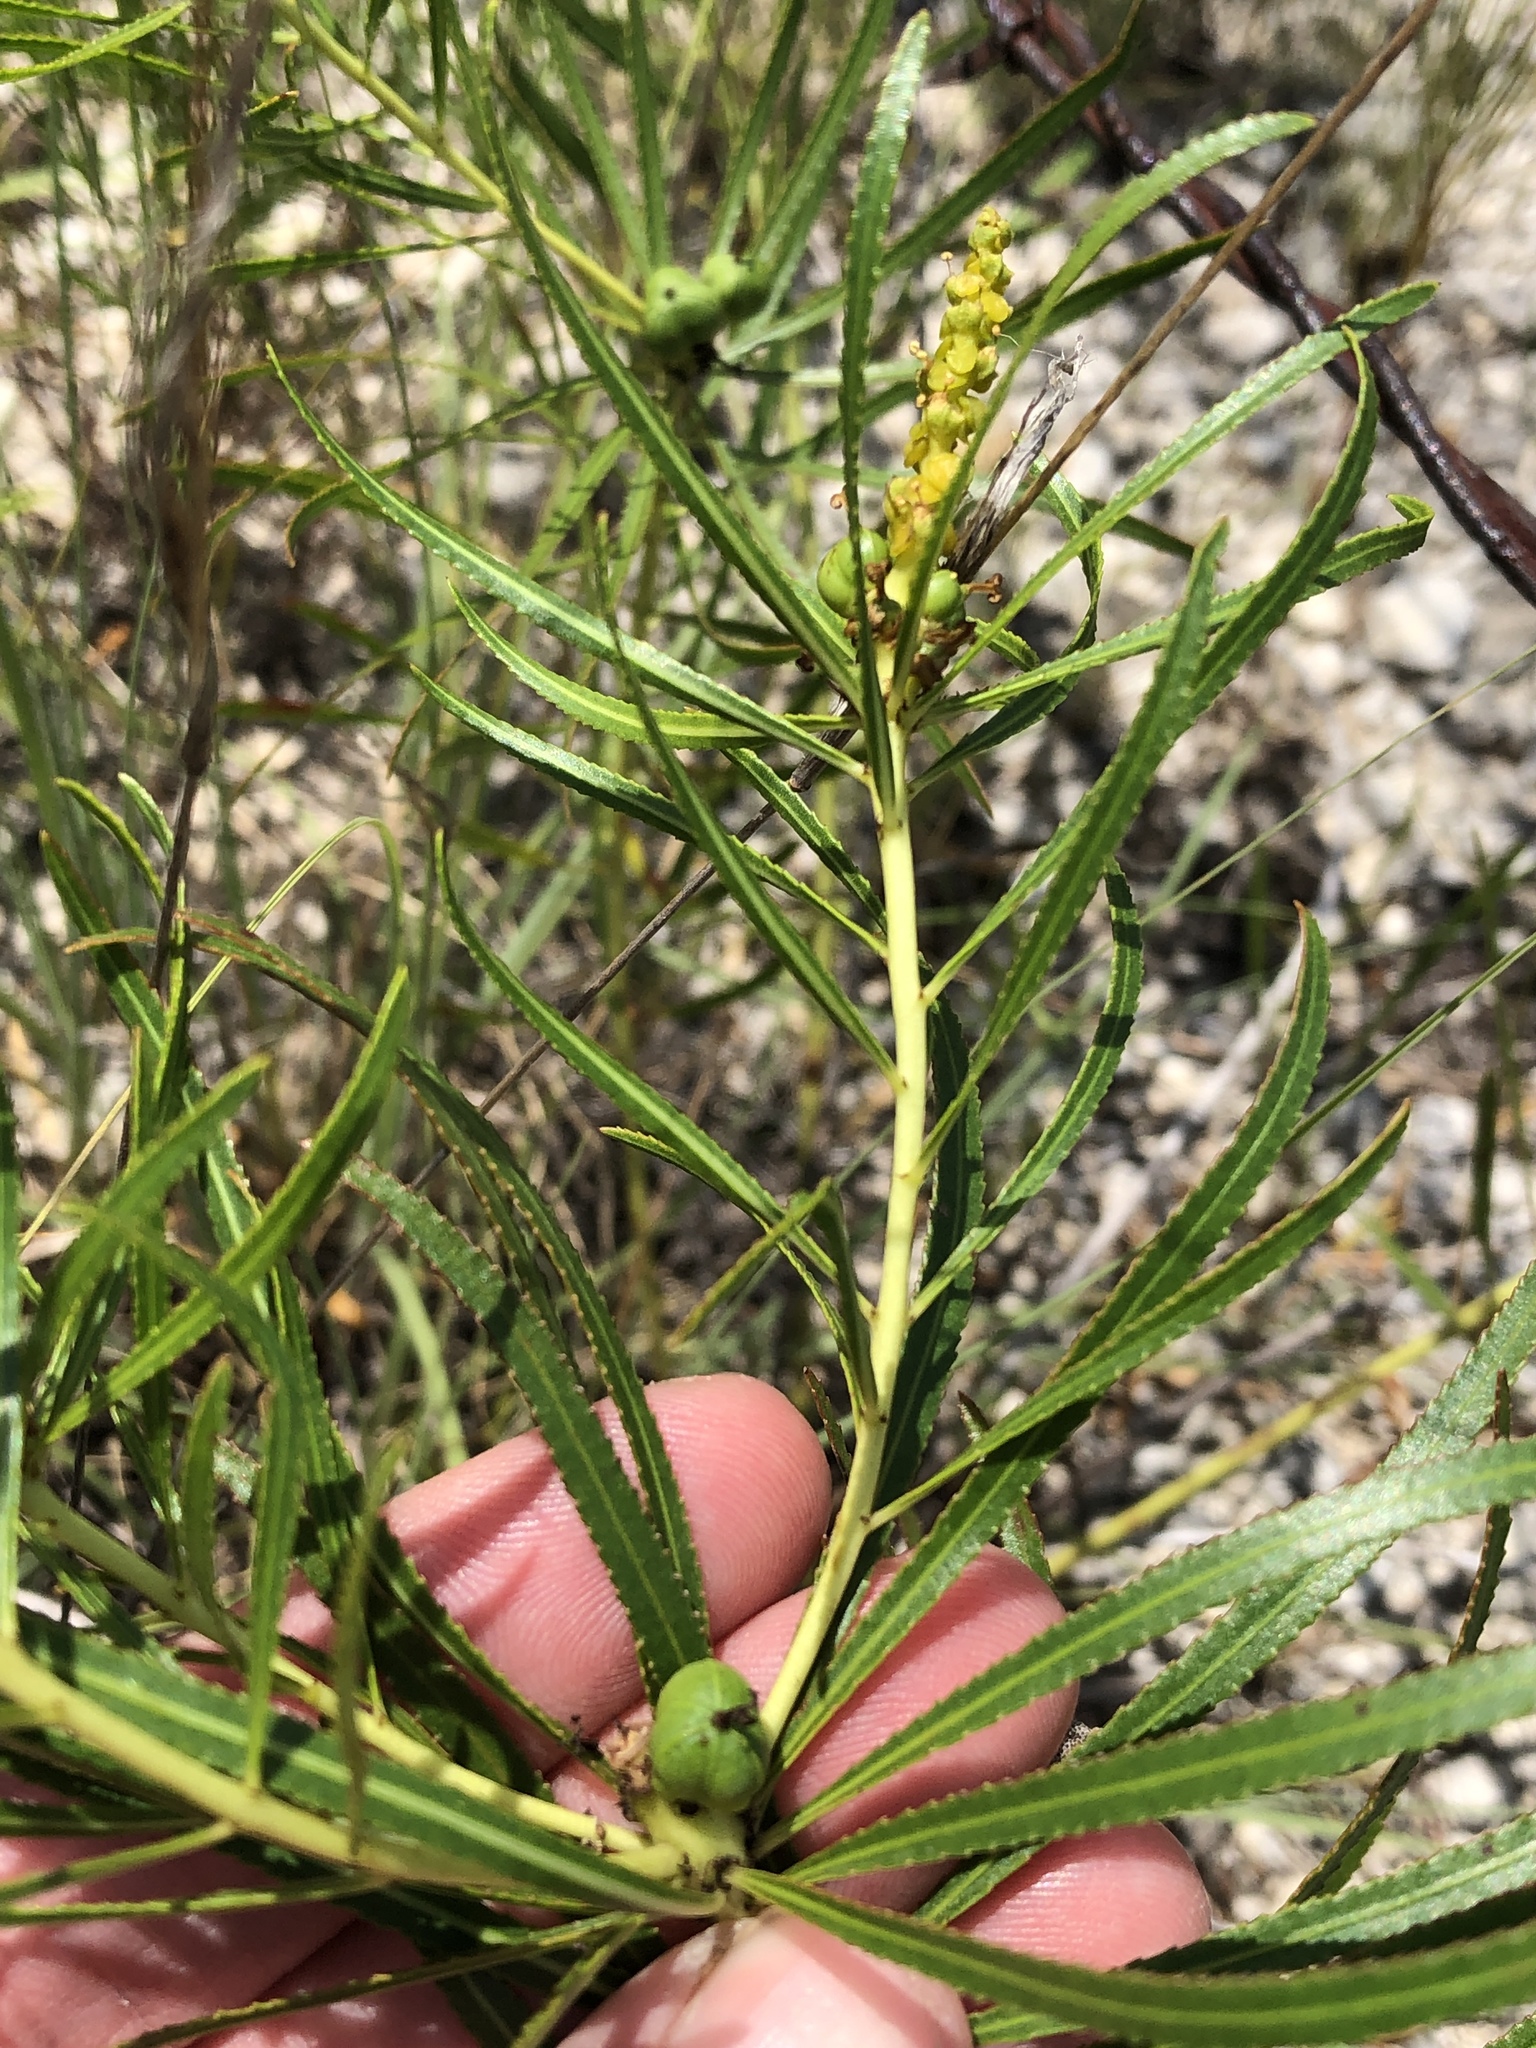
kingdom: Plantae
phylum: Tracheophyta
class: Magnoliopsida
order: Malpighiales
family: Euphorbiaceae
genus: Stillingia
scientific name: Stillingia texana
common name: Texas stillingia
